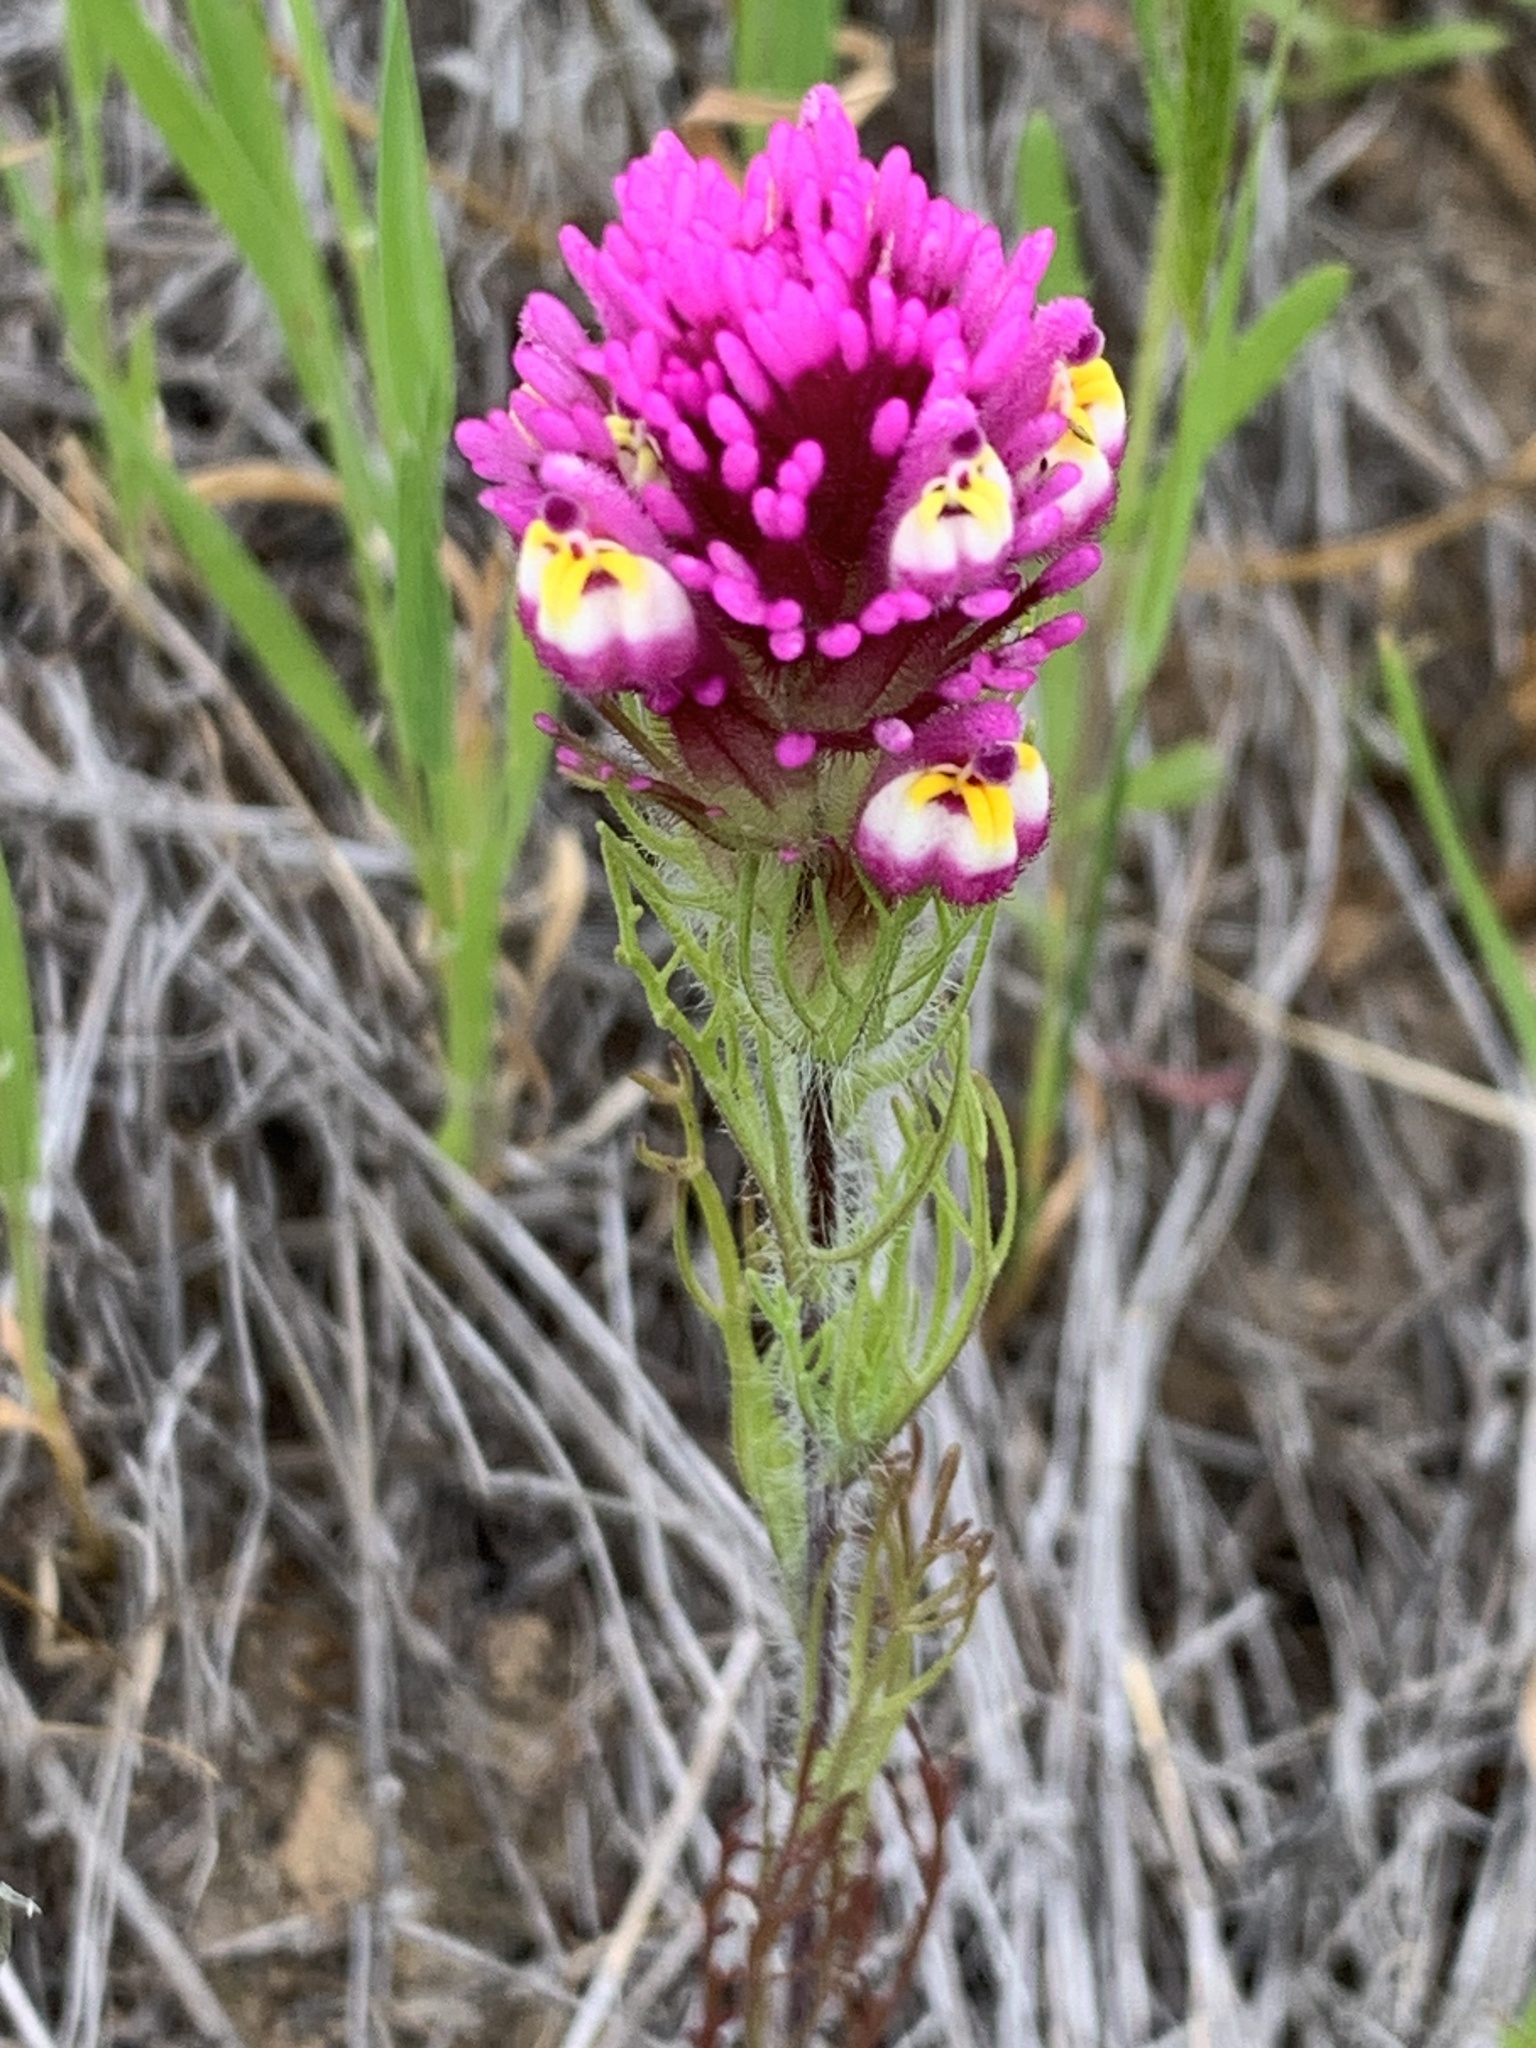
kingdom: Plantae
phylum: Tracheophyta
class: Magnoliopsida
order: Lamiales
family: Orobanchaceae
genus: Castilleja
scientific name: Castilleja exserta
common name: Purple owl-clover
